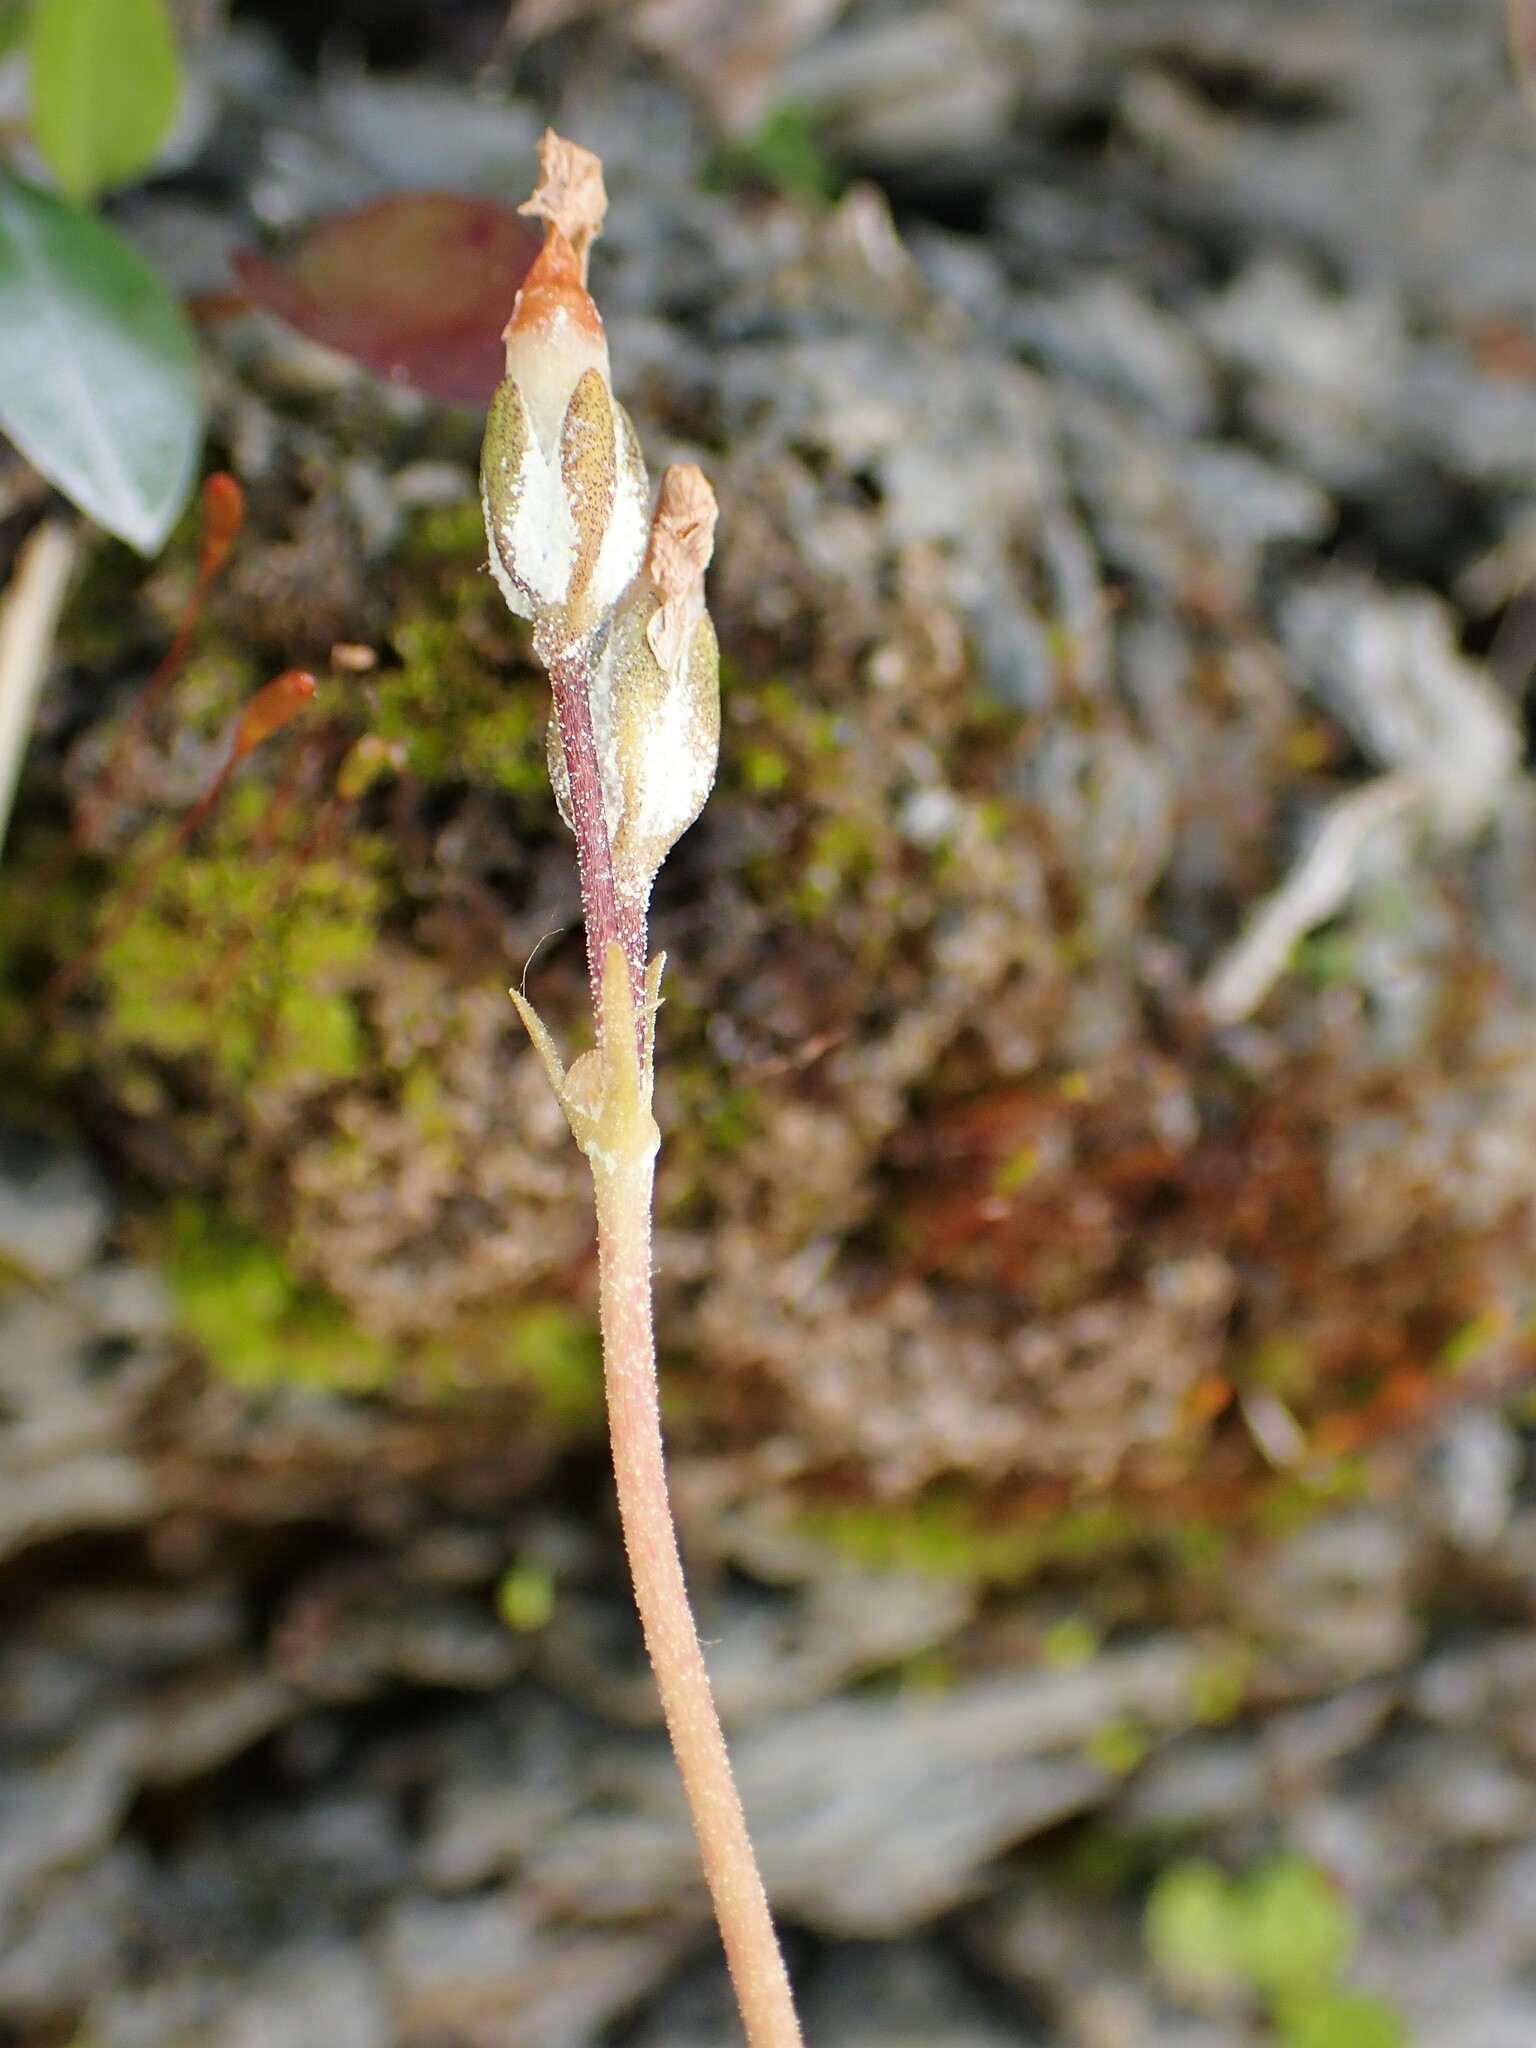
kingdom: Plantae
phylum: Tracheophyta
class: Magnoliopsida
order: Ericales
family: Primulaceae
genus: Primula
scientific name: Primula laurentiana
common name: Bird-eye primrose
